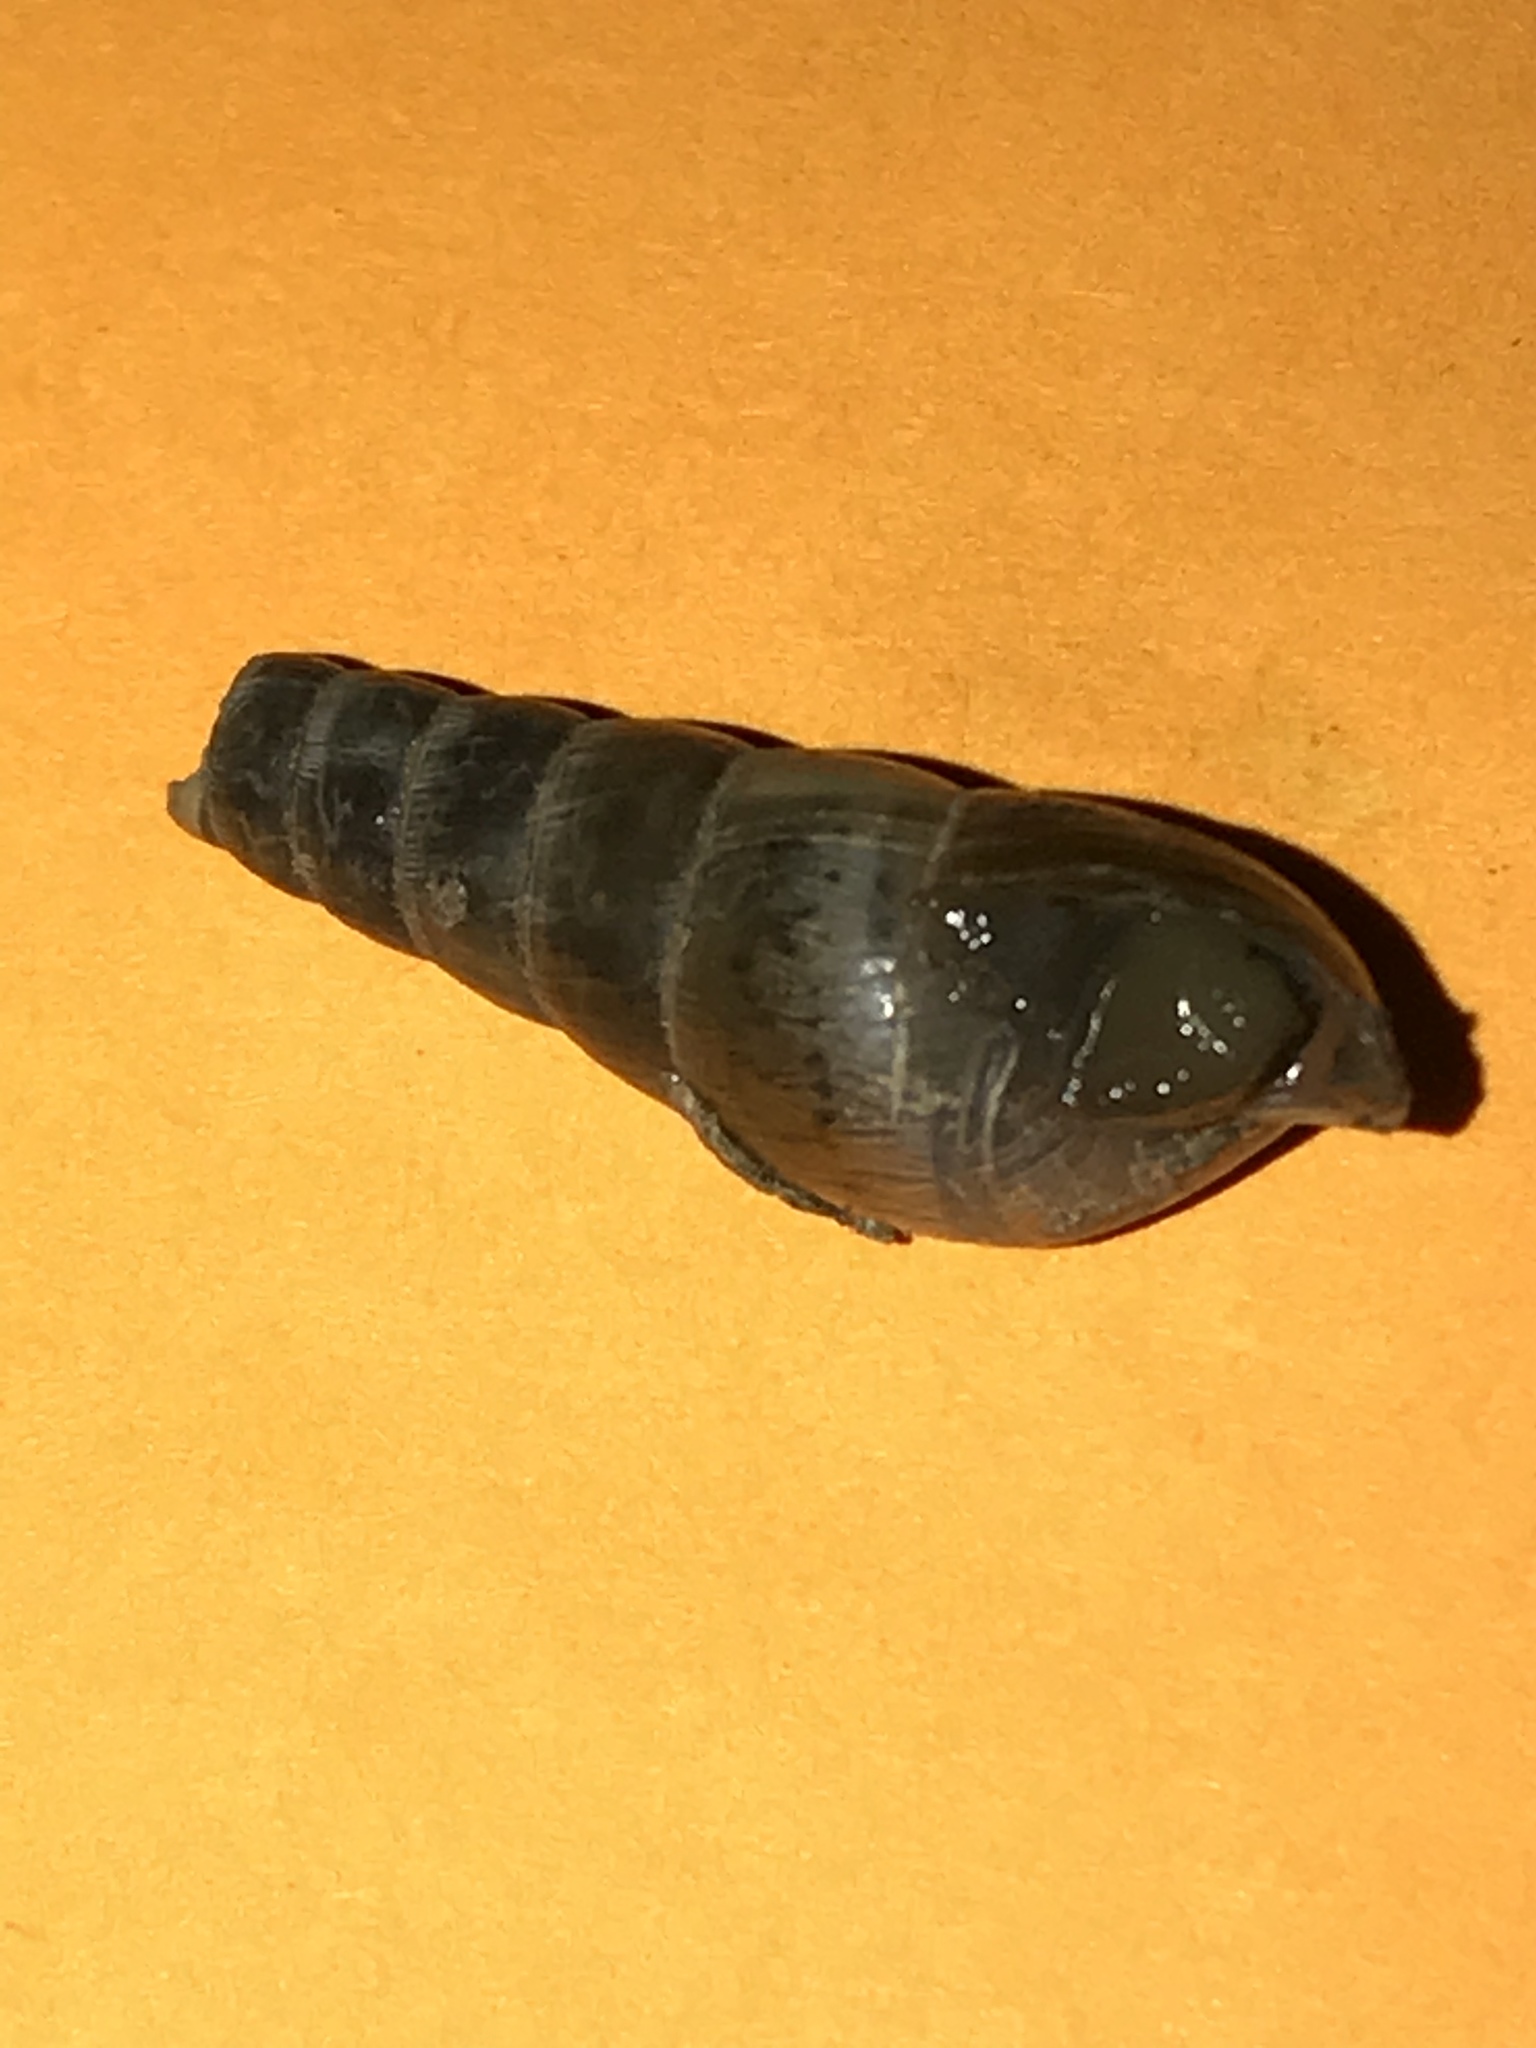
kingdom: Animalia
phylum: Mollusca
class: Gastropoda
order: Stylommatophora
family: Achatinidae
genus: Rumina
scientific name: Rumina decollata
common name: Decollate snail
